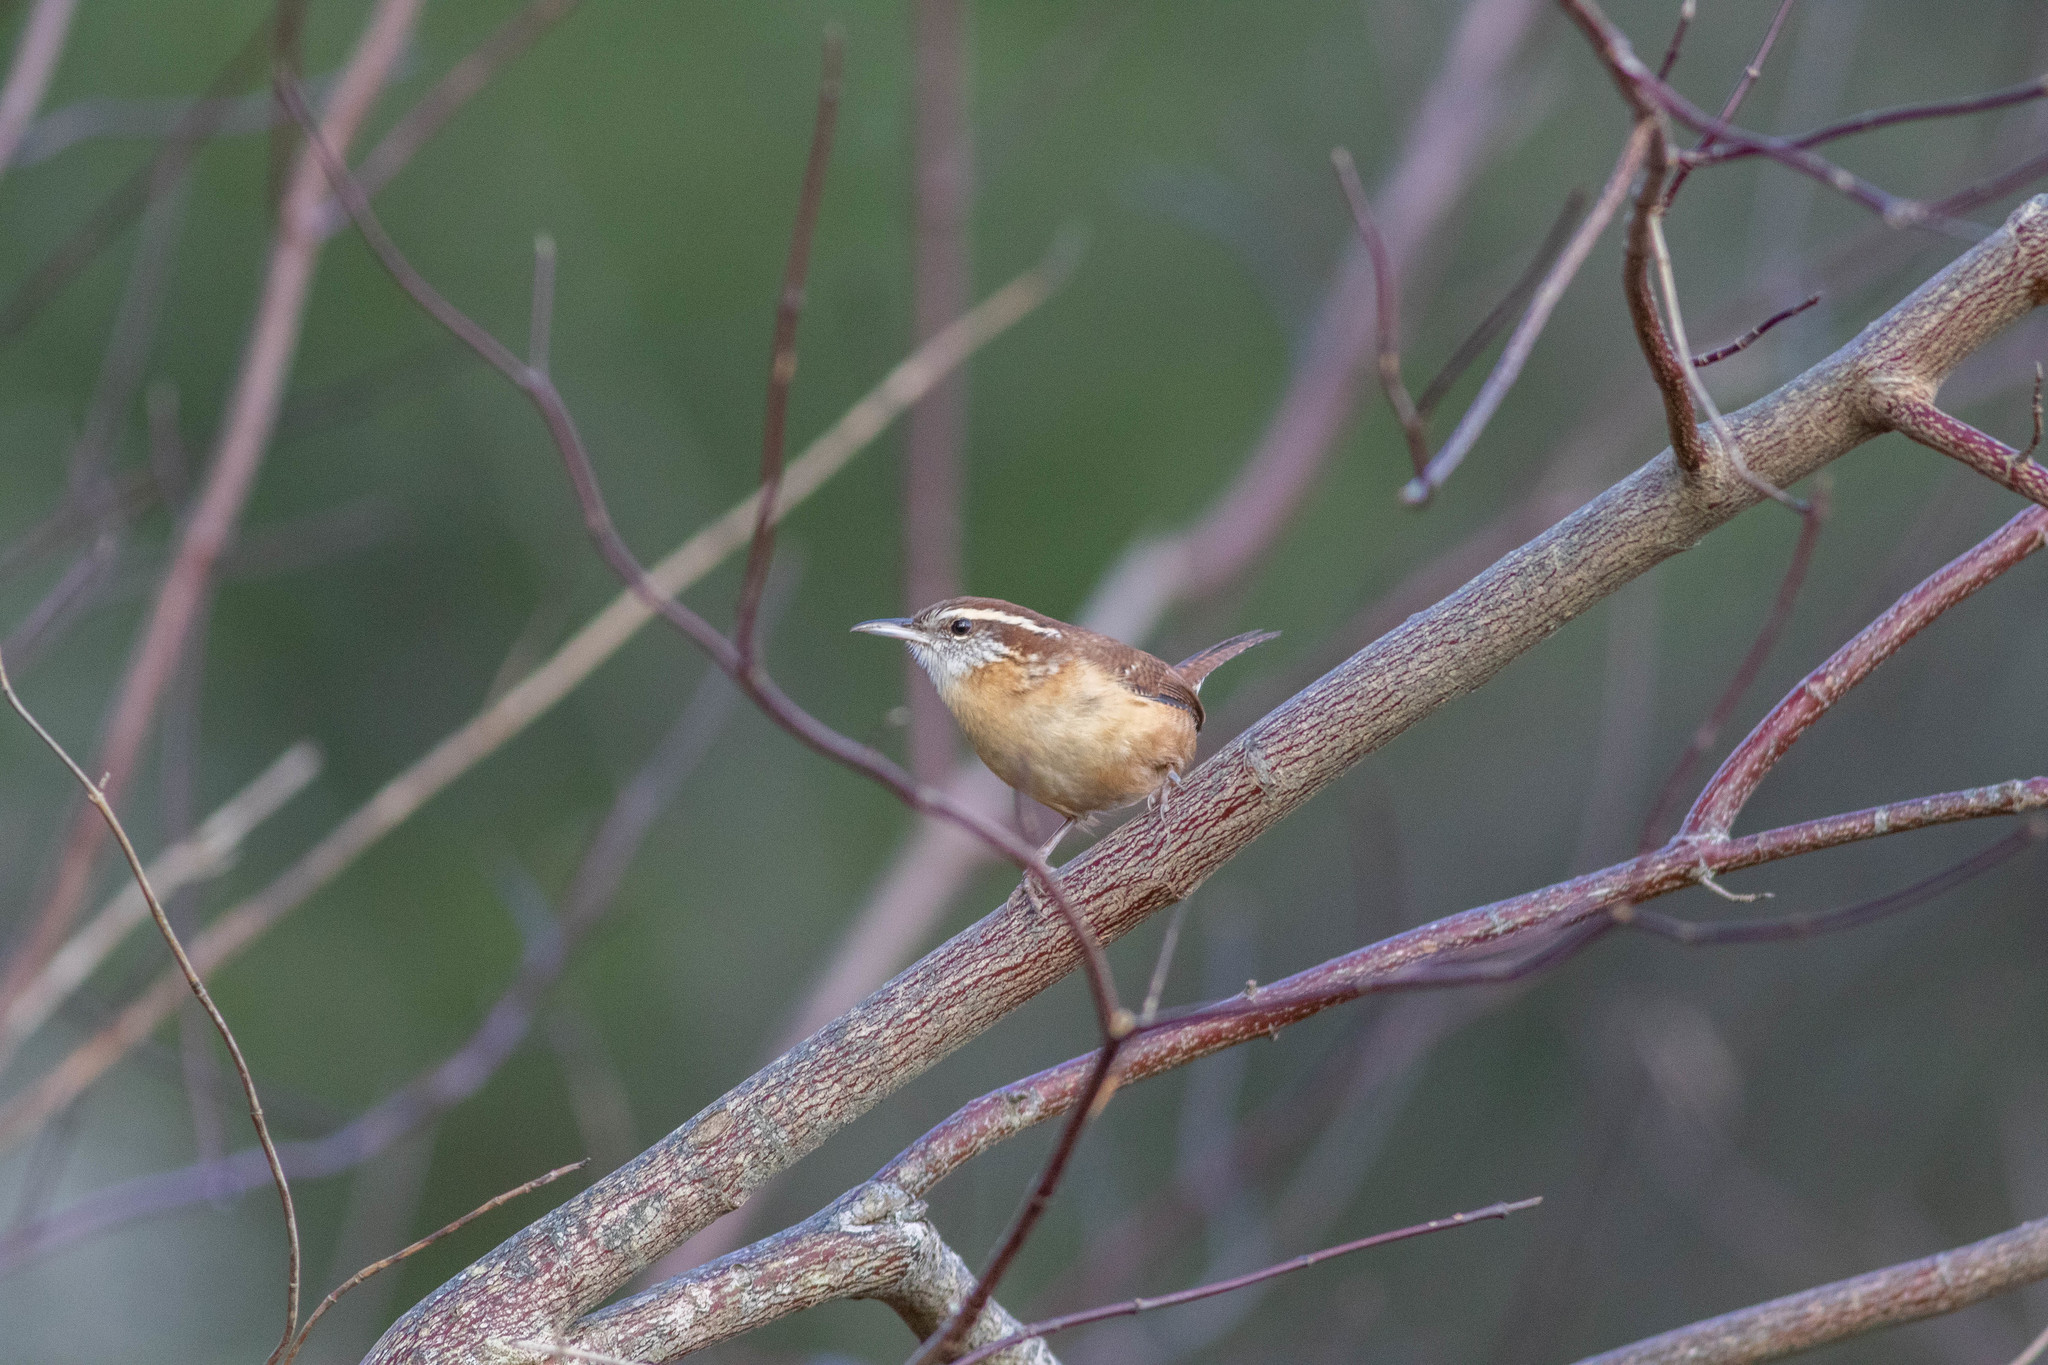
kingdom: Animalia
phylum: Chordata
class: Aves
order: Passeriformes
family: Troglodytidae
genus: Thryothorus
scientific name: Thryothorus ludovicianus
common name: Carolina wren
